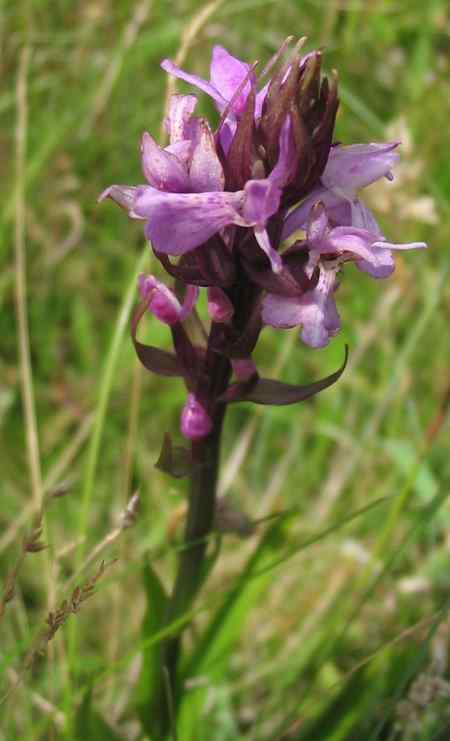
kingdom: Plantae
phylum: Tracheophyta
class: Liliopsida
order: Asparagales
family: Orchidaceae
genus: Dactylorhiza
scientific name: Dactylorhiza majalis
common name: Marsh orchid
